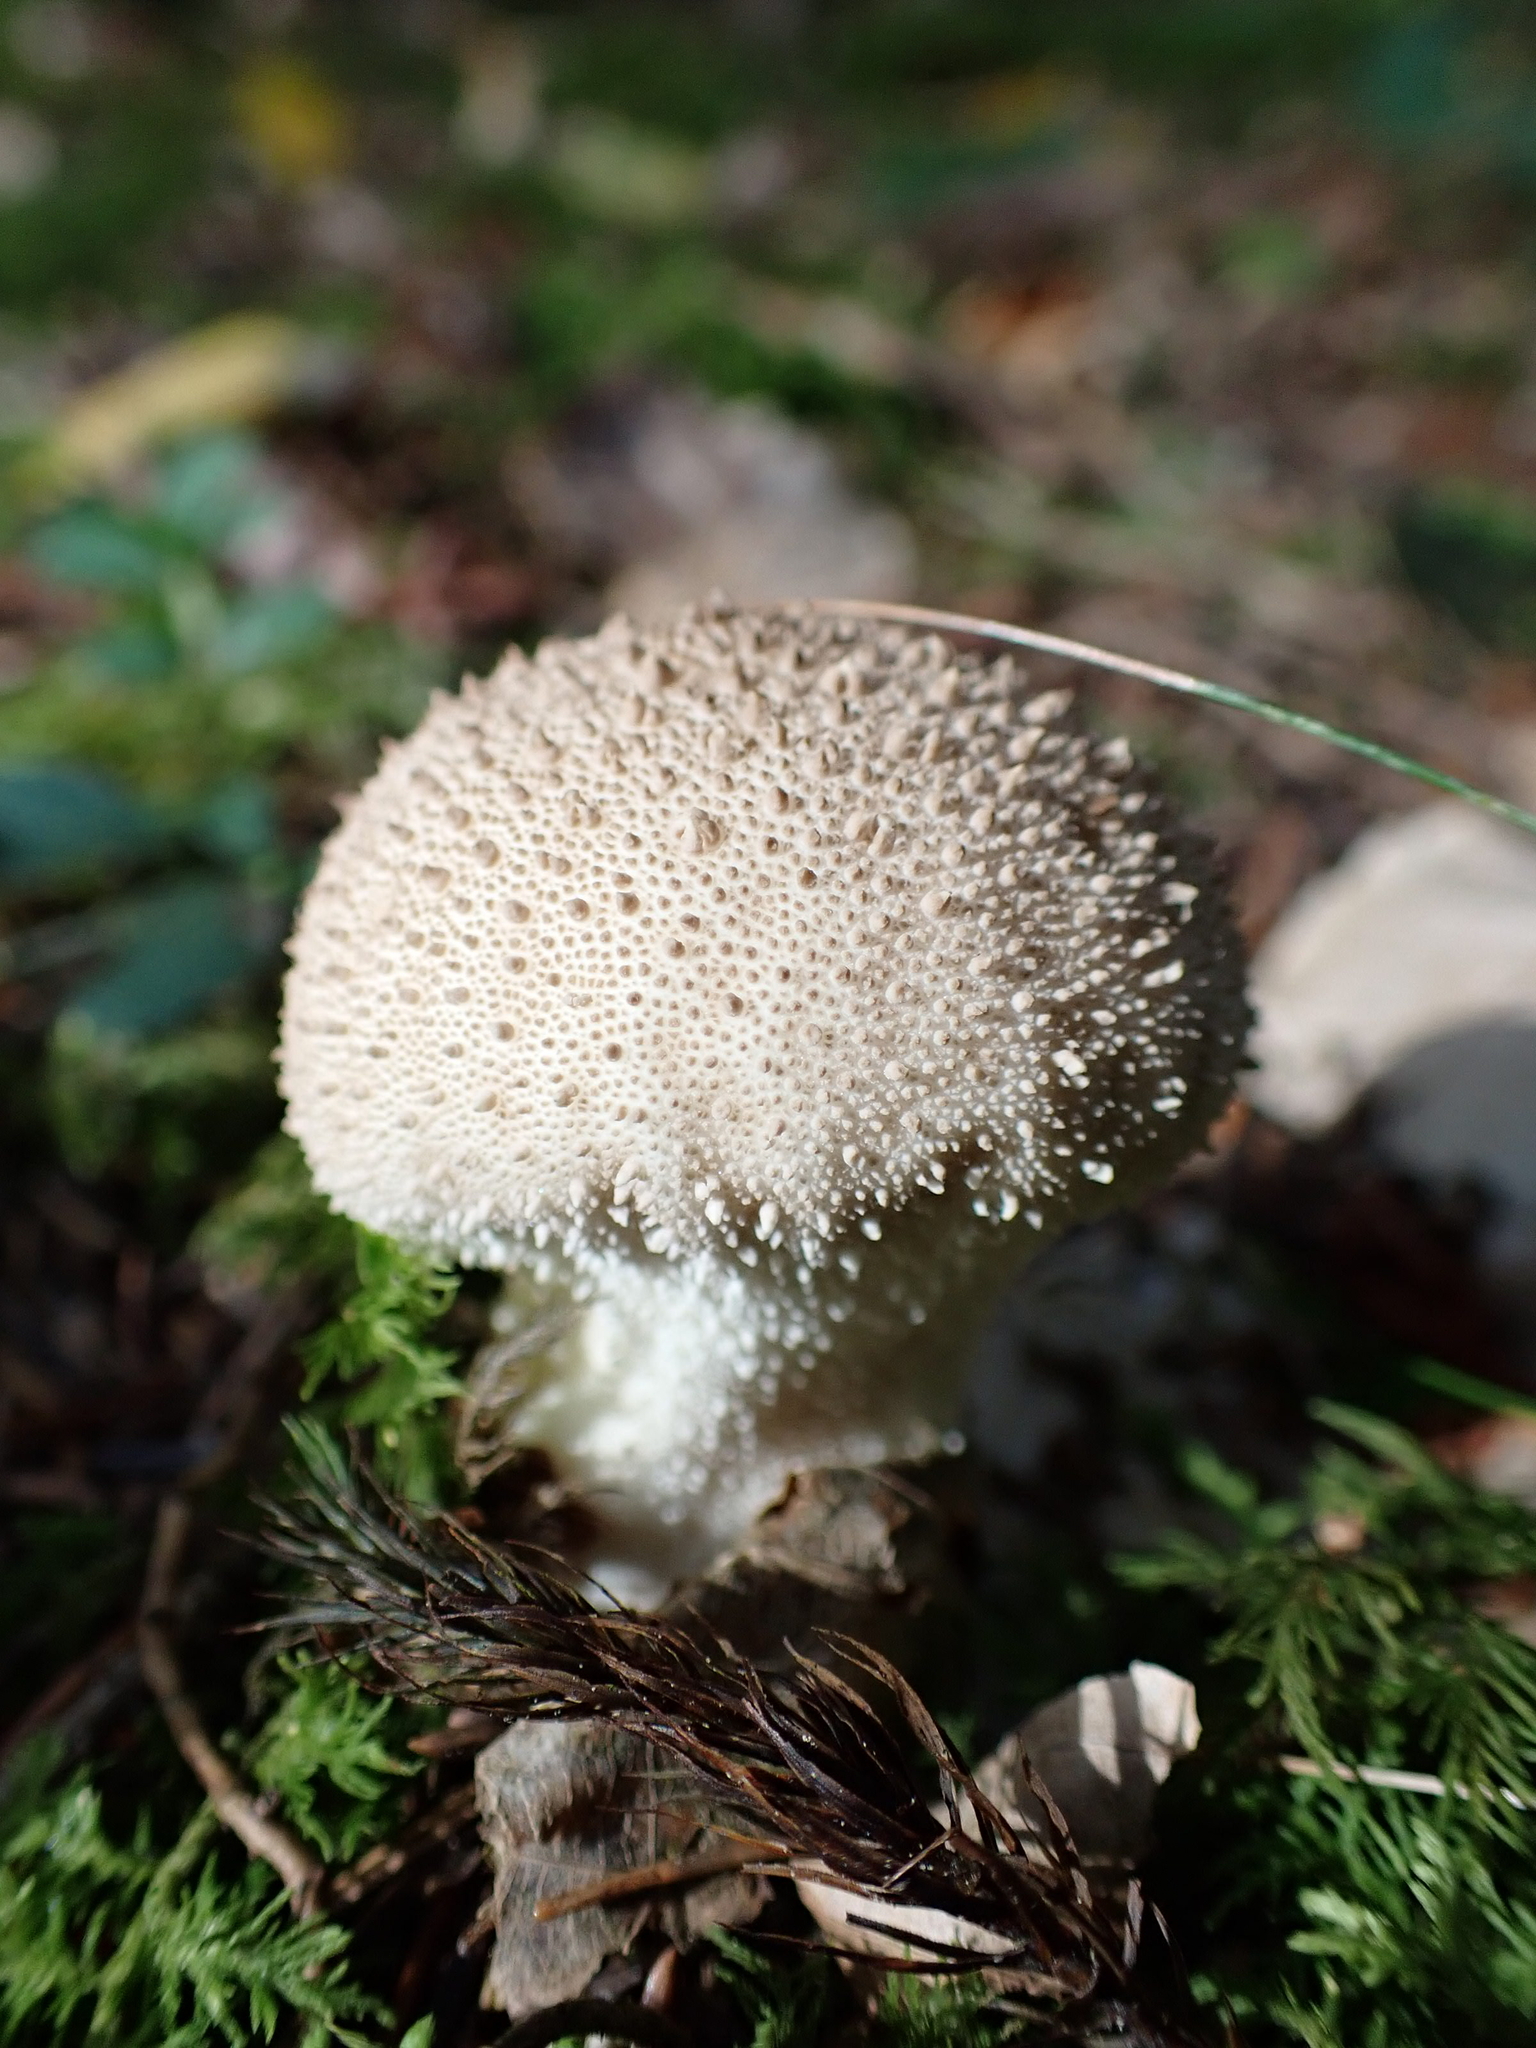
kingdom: Fungi
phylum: Basidiomycota
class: Agaricomycetes
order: Agaricales
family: Lycoperdaceae
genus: Lycoperdon
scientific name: Lycoperdon perlatum
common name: Common puffball
